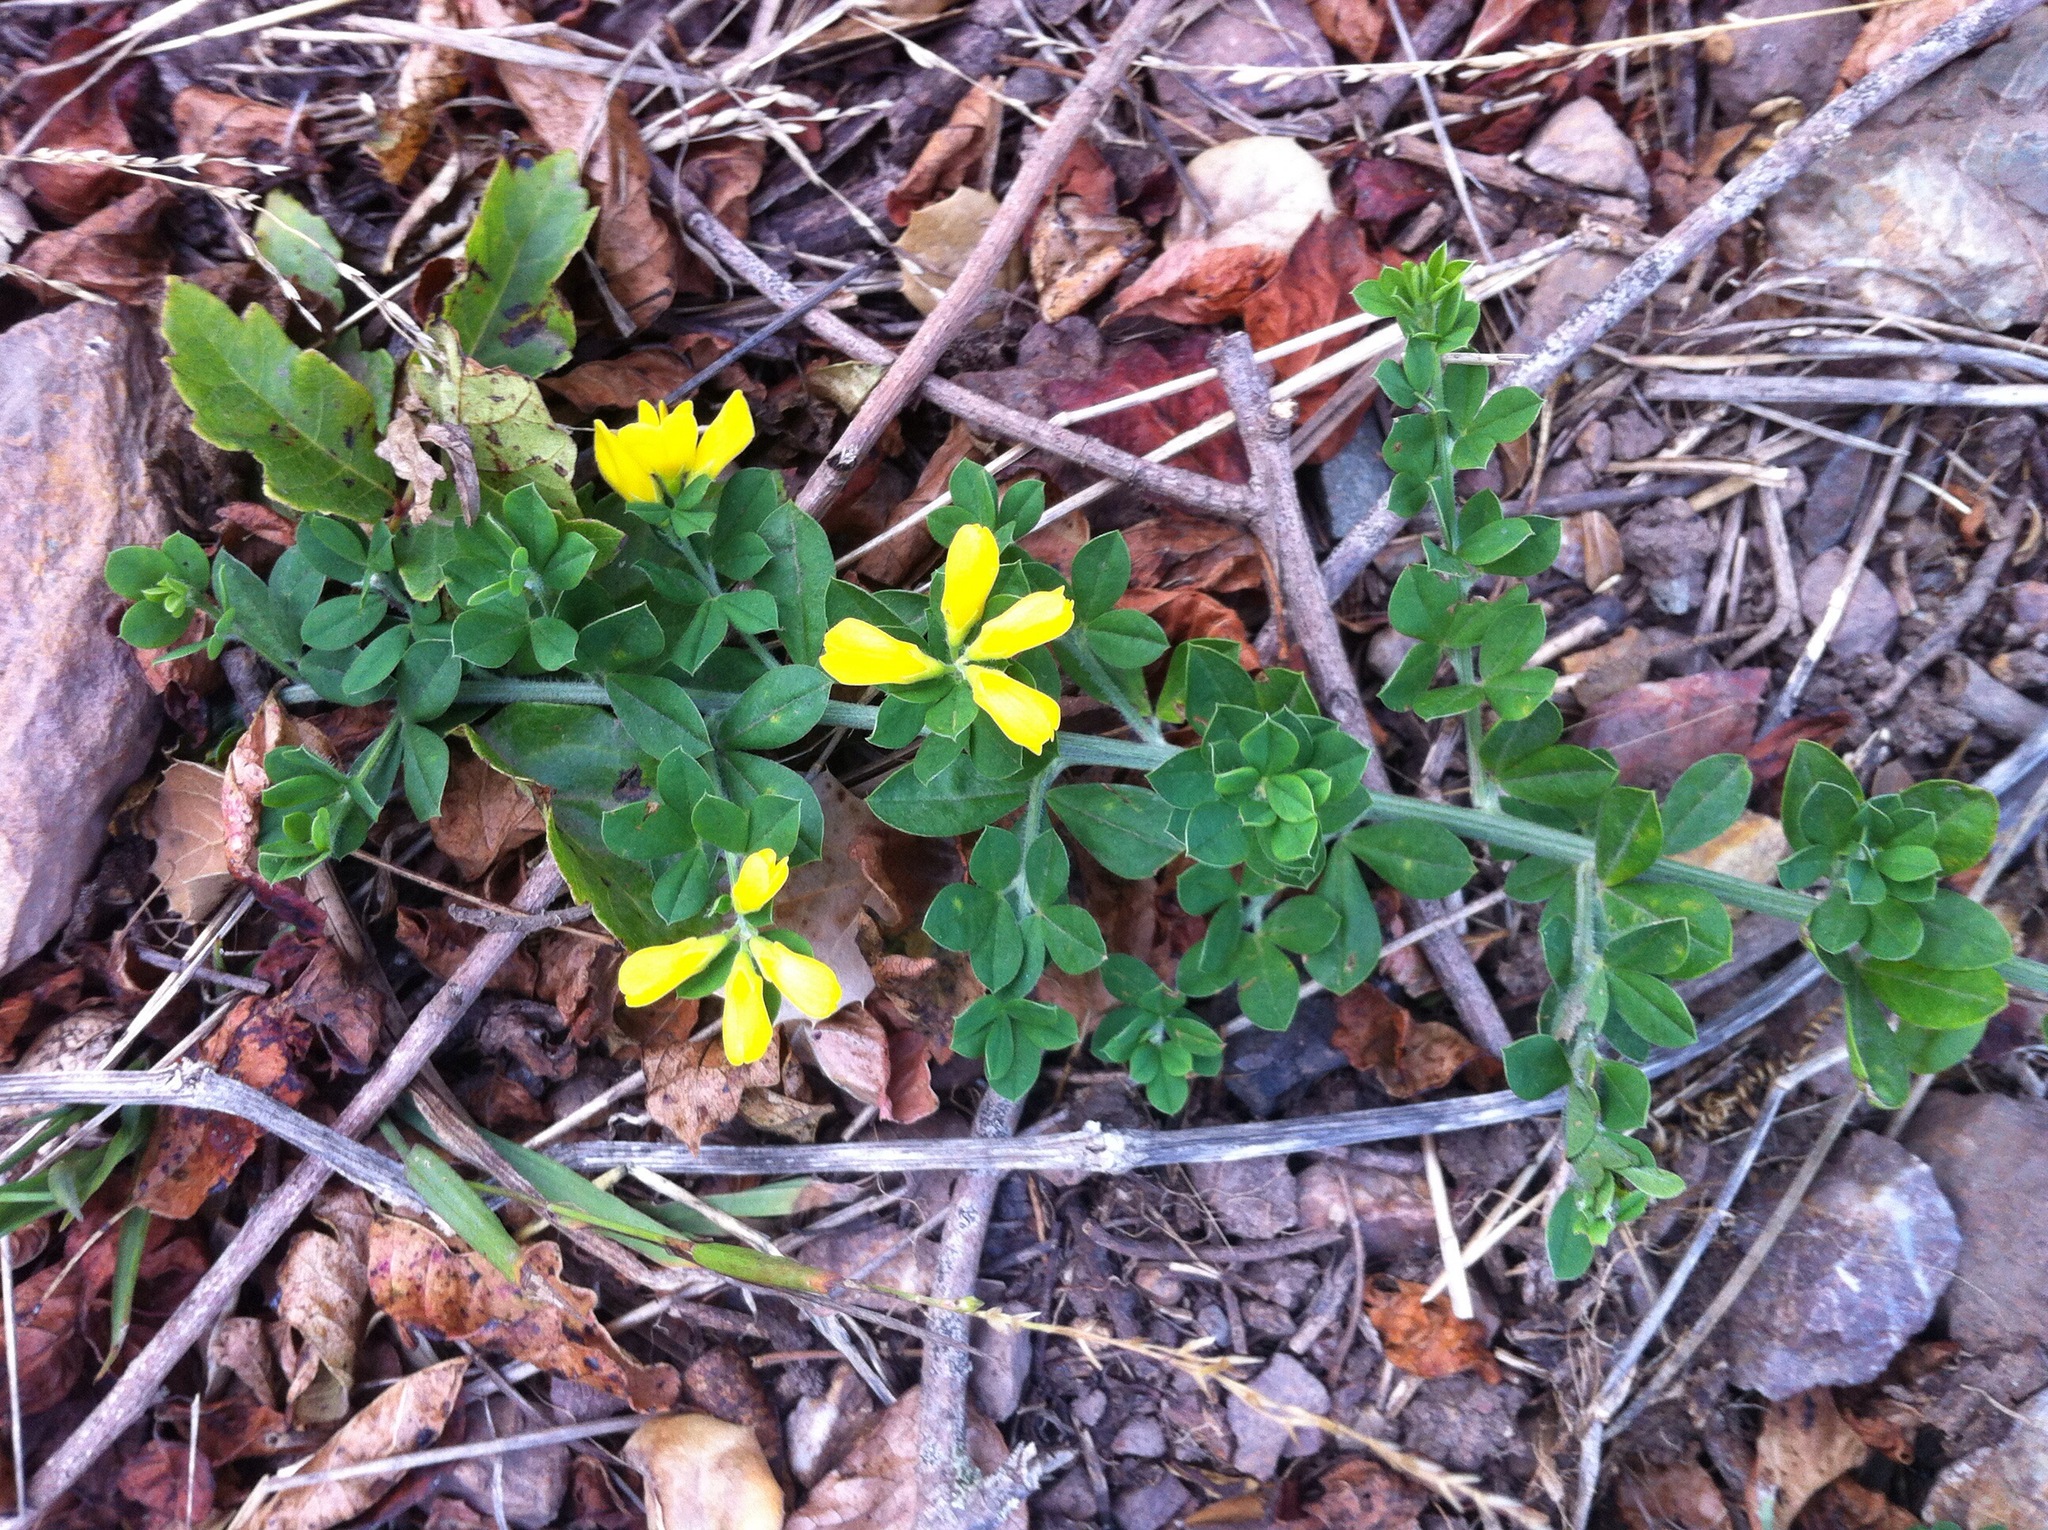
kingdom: Plantae
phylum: Tracheophyta
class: Magnoliopsida
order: Fabales
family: Fabaceae
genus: Genista
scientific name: Genista monspessulana
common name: Montpellier broom
